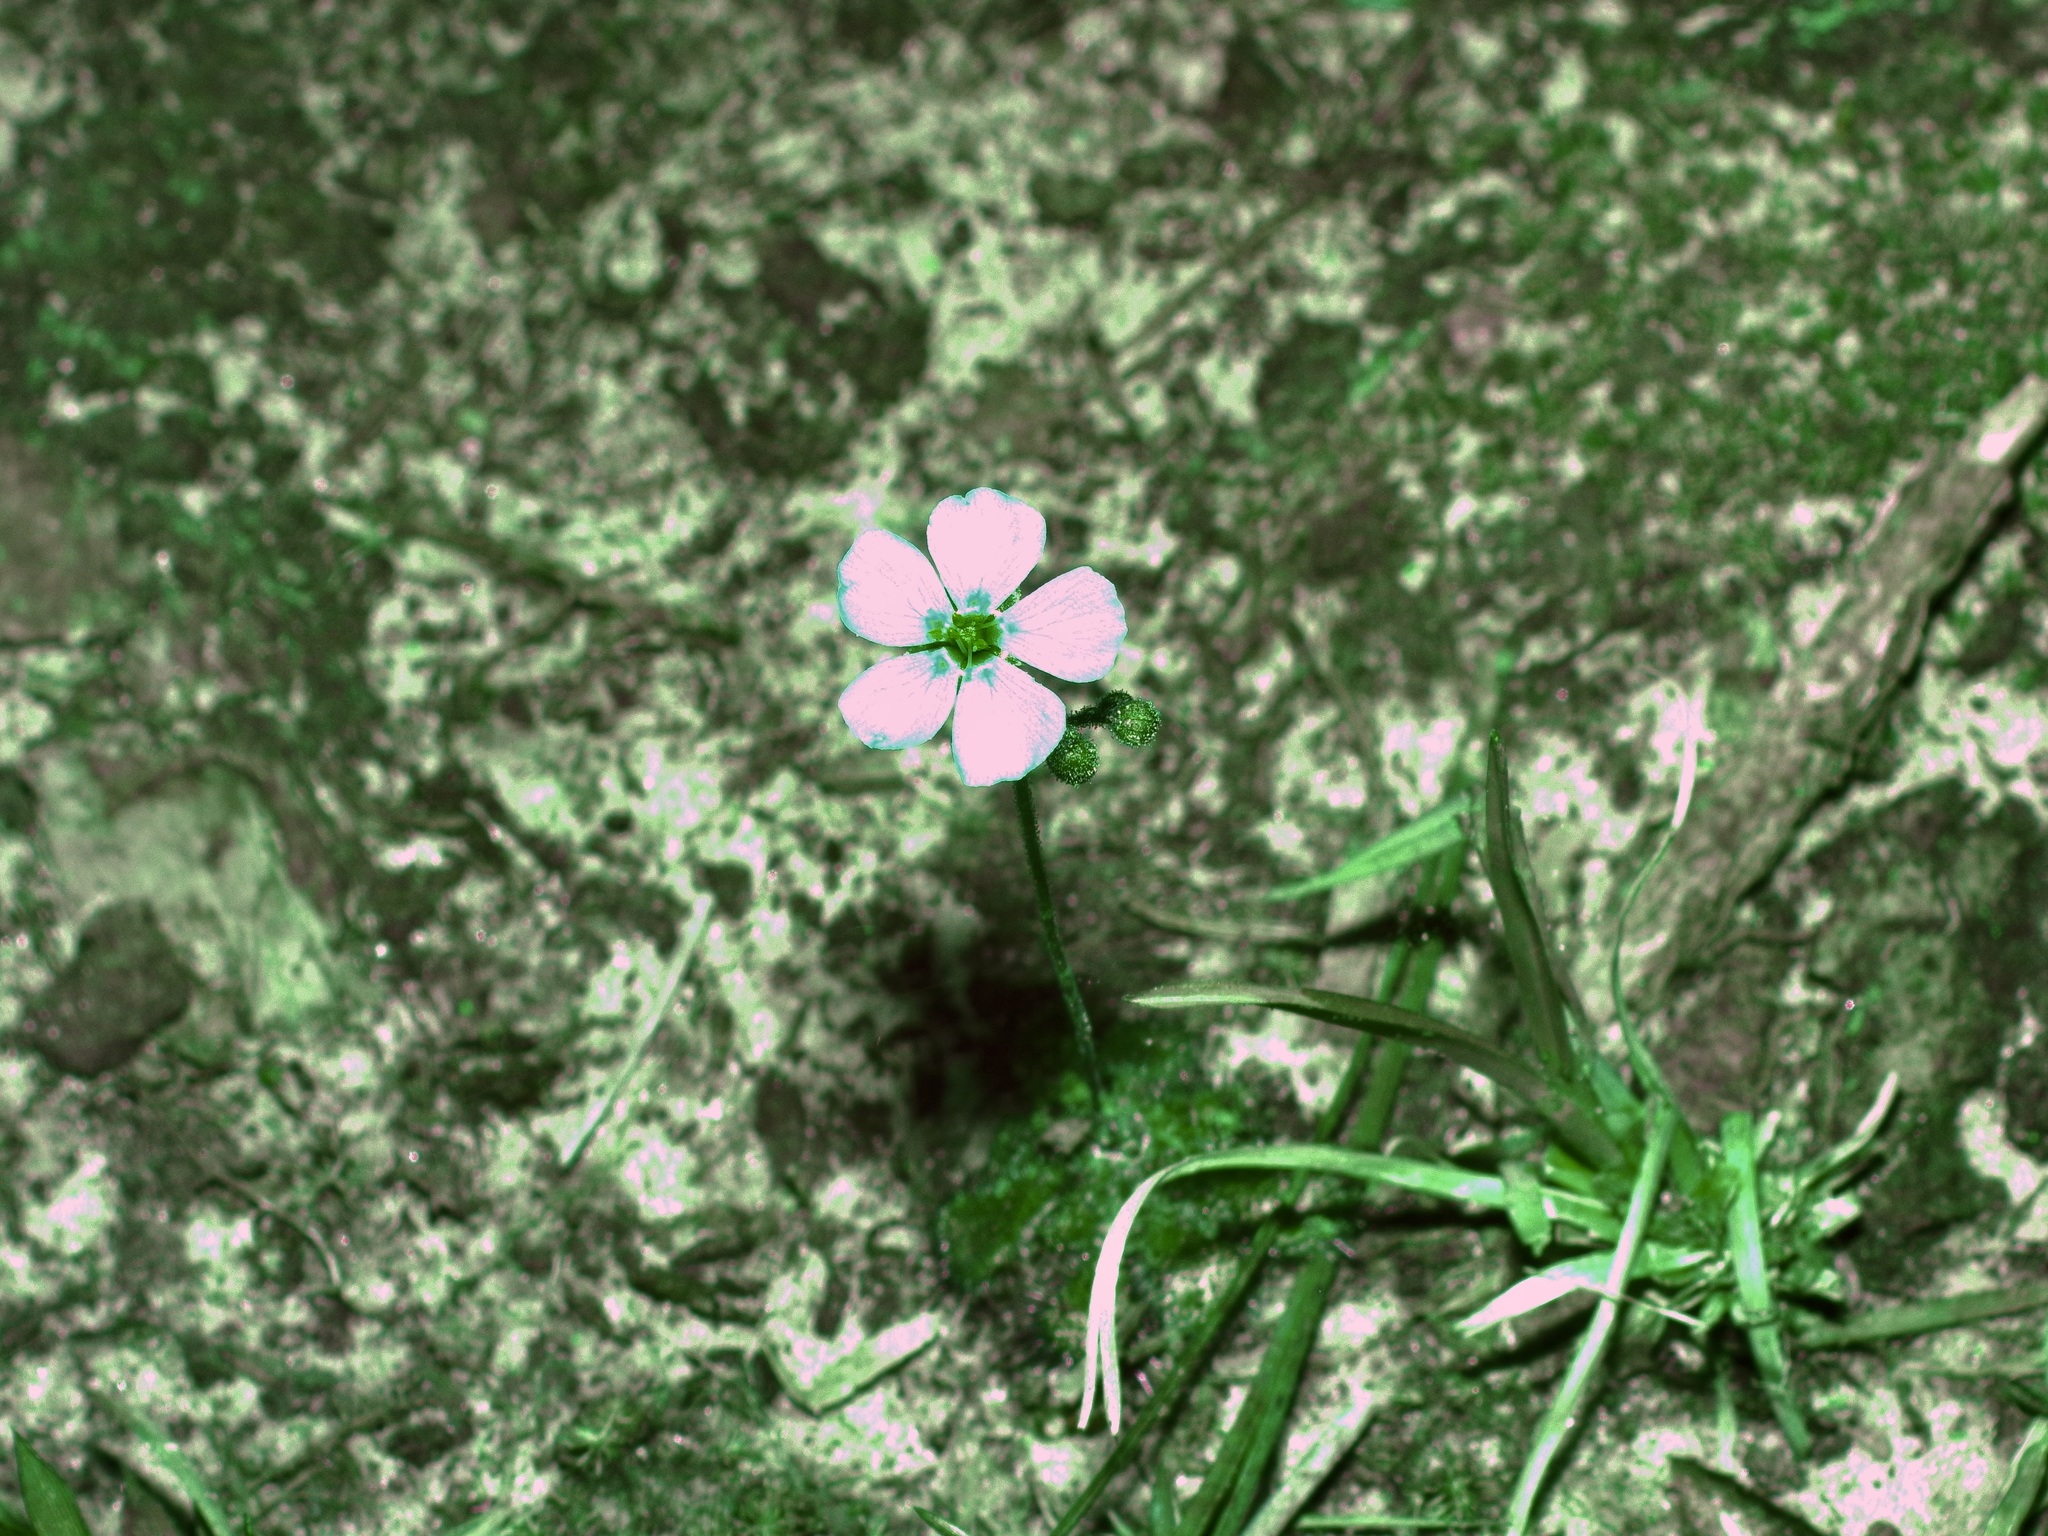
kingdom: Plantae
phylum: Tracheophyta
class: Magnoliopsida
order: Caryophyllales
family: Droseraceae
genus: Drosera
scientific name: Drosera brevifolia
